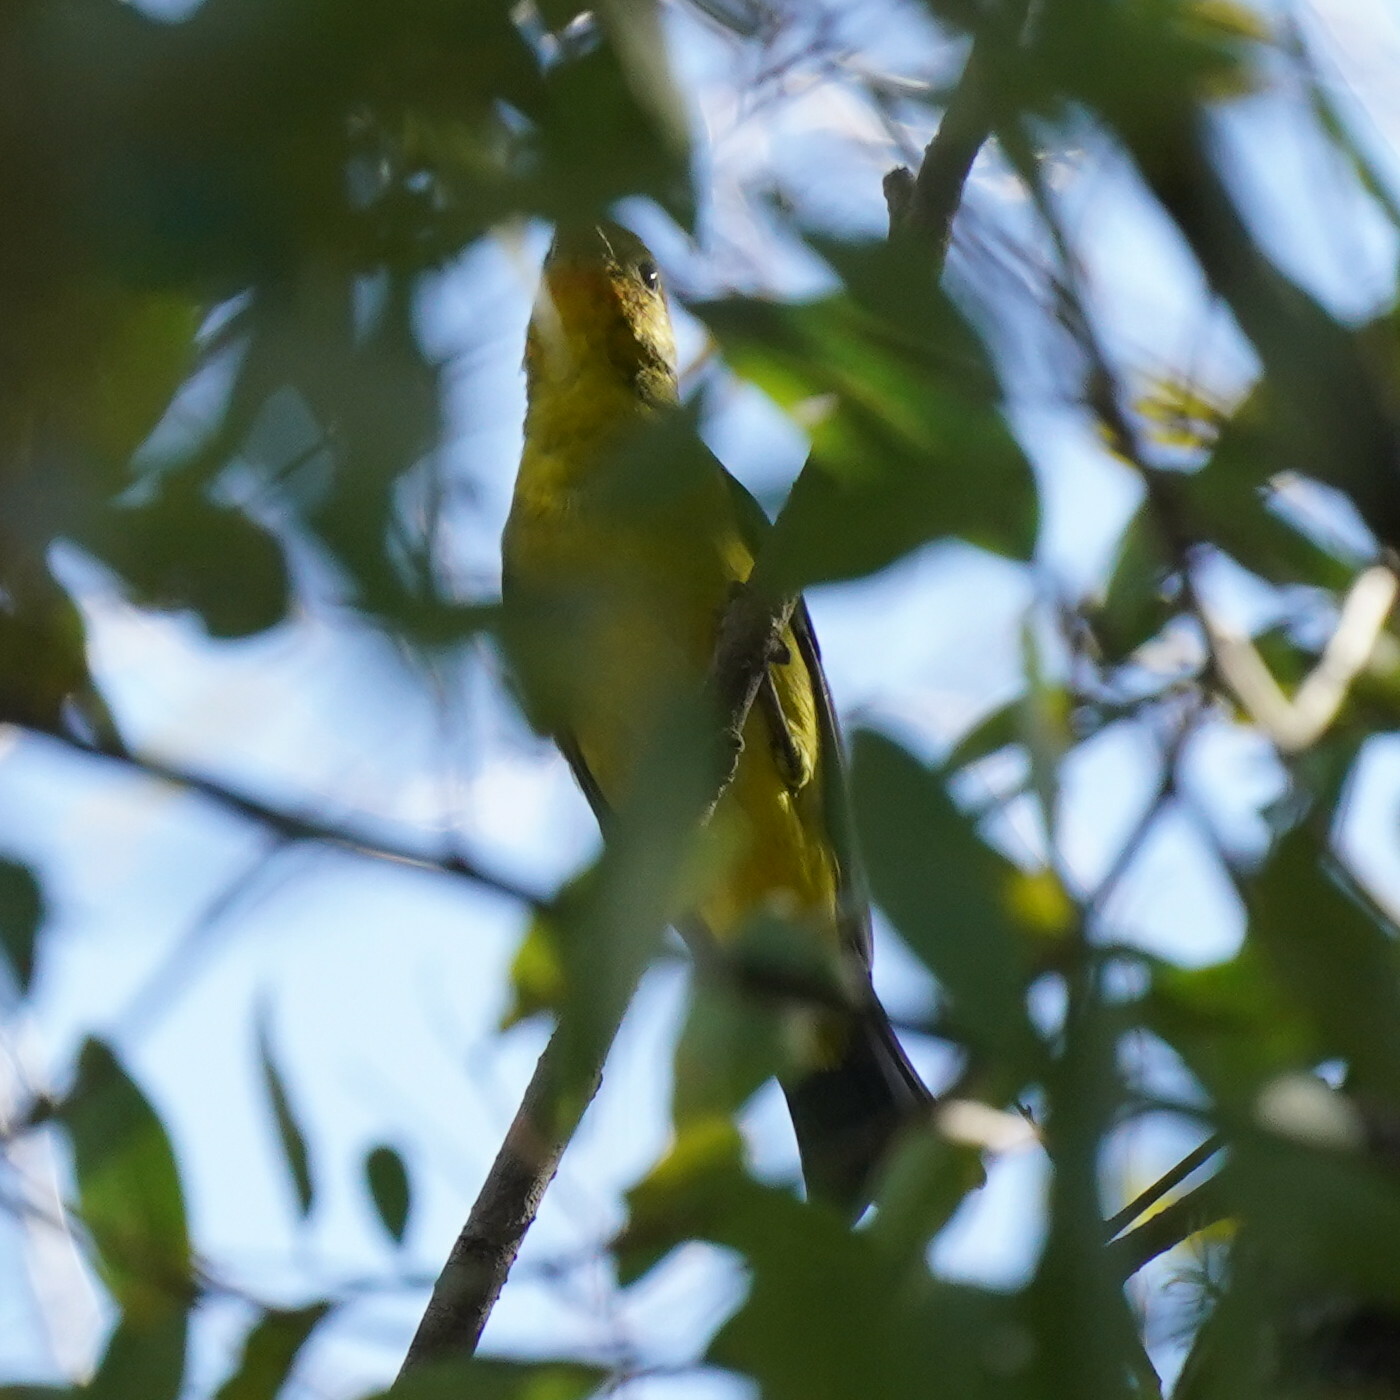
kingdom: Animalia
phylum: Chordata
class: Aves
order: Passeriformes
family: Cardinalidae
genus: Piranga
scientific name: Piranga ludoviciana
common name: Western tanager
